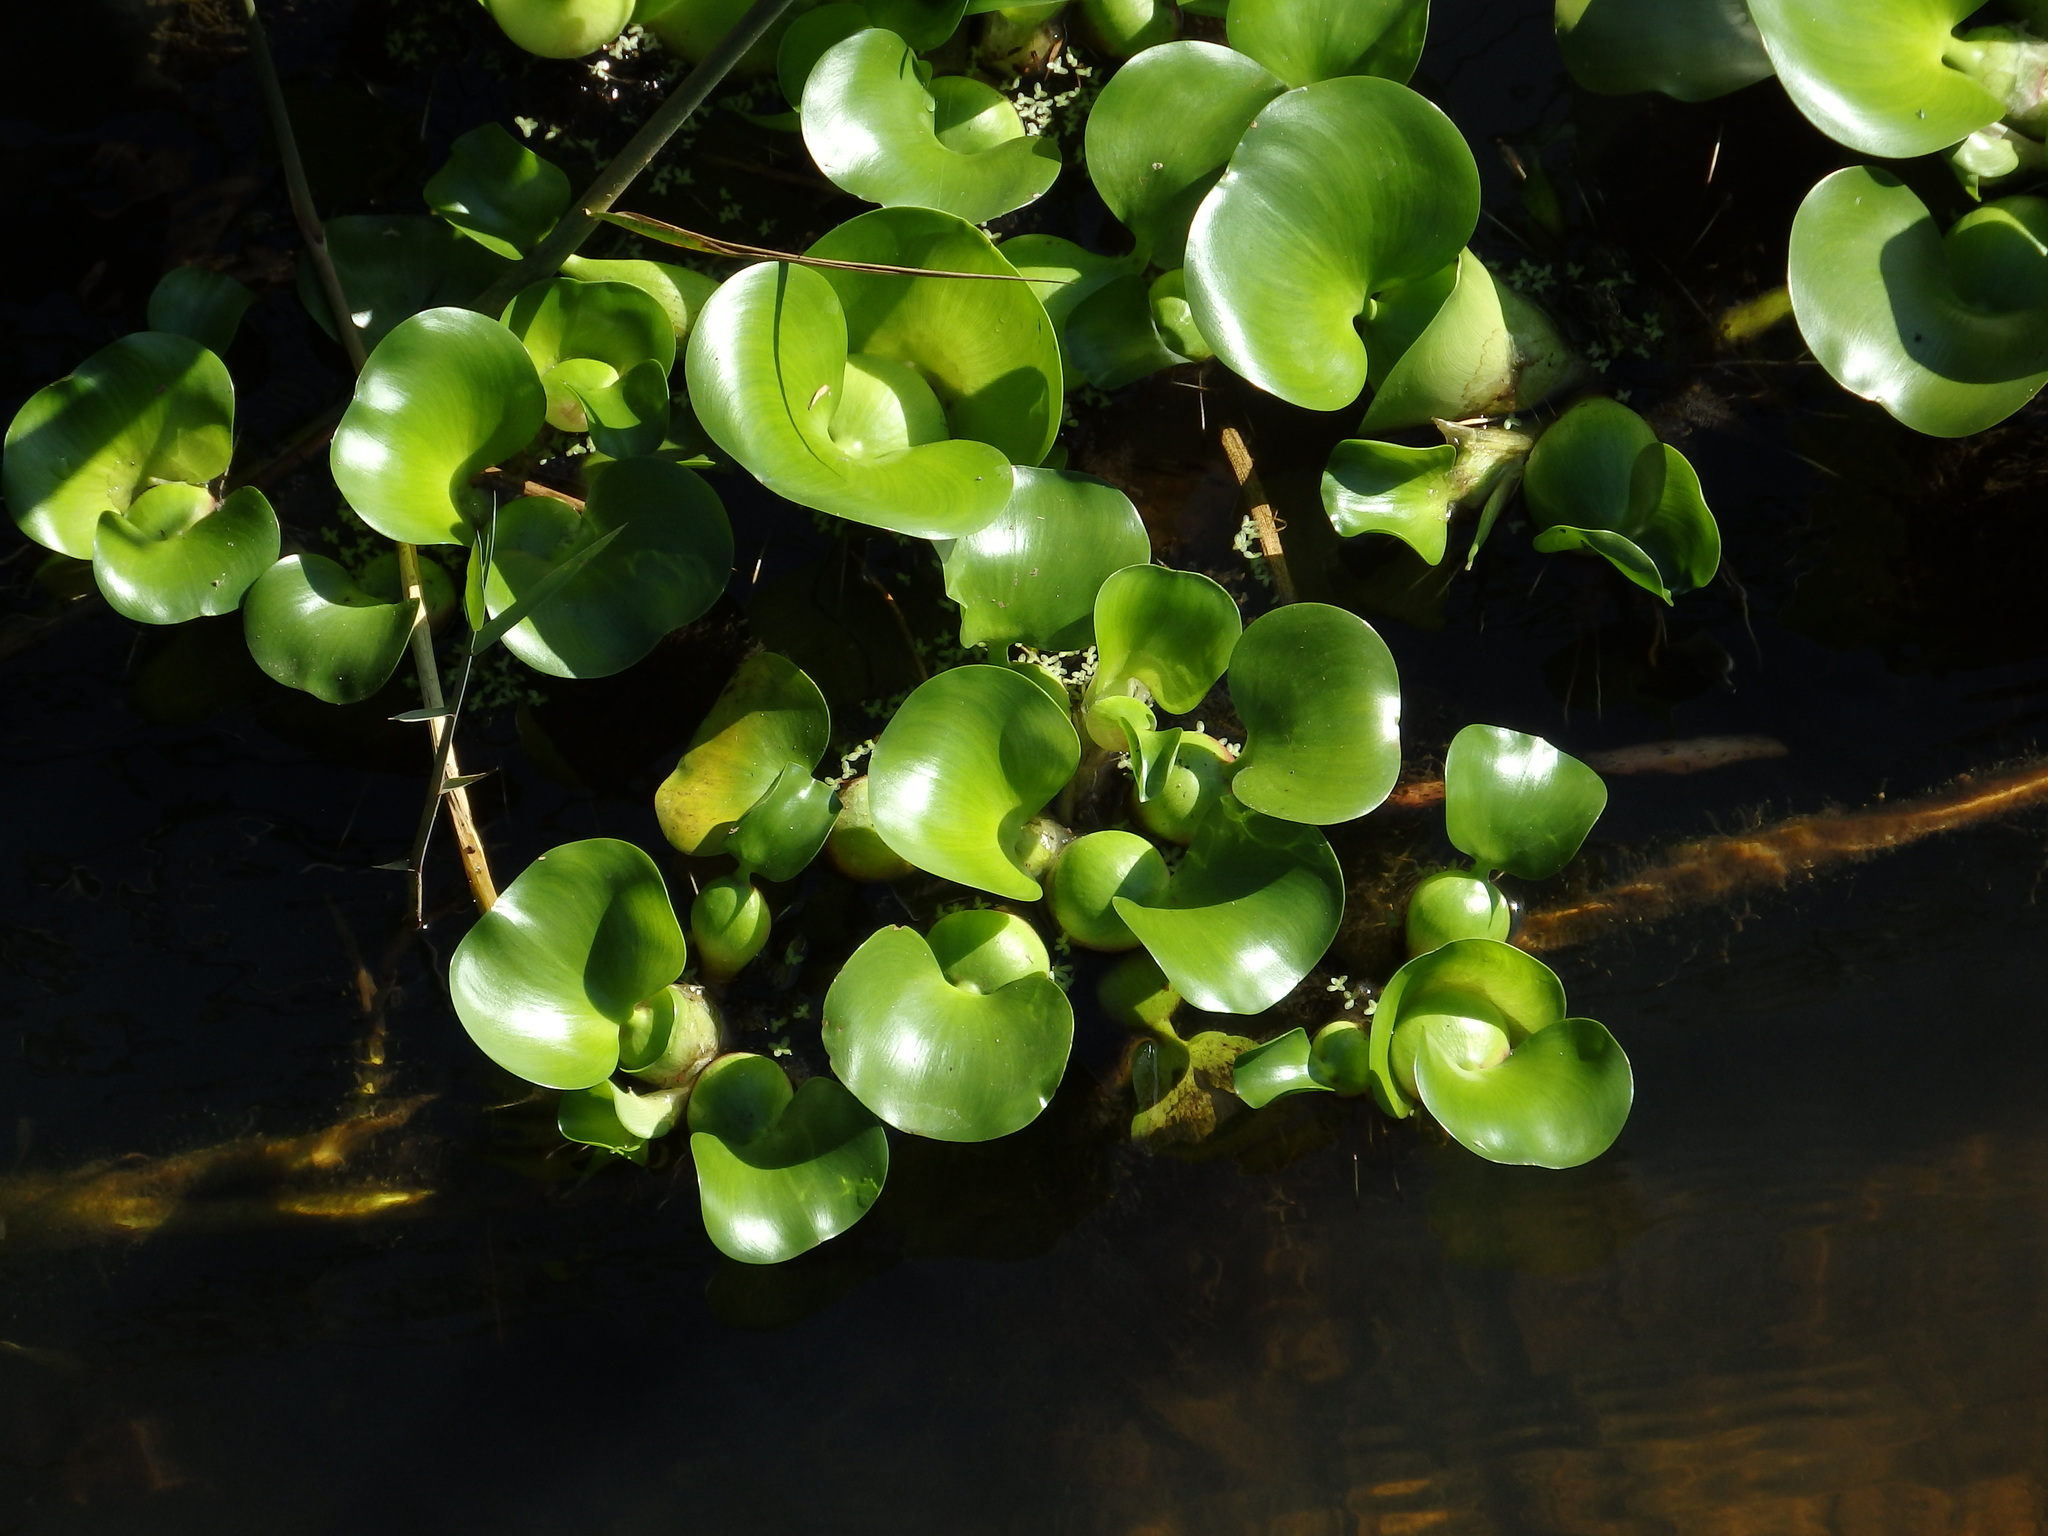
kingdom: Plantae
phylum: Tracheophyta
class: Liliopsida
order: Commelinales
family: Pontederiaceae
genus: Pontederia
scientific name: Pontederia crassipes
